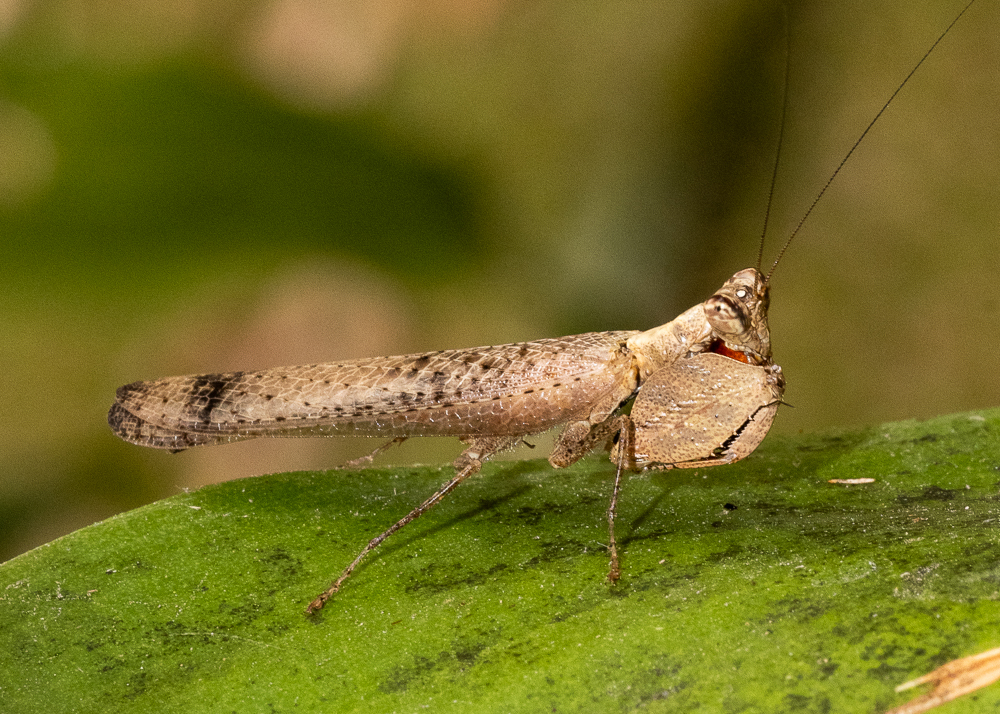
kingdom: Animalia
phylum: Arthropoda
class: Insecta
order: Mantodea
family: Hymenopodidae
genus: Astyliasula
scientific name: Astyliasula major
